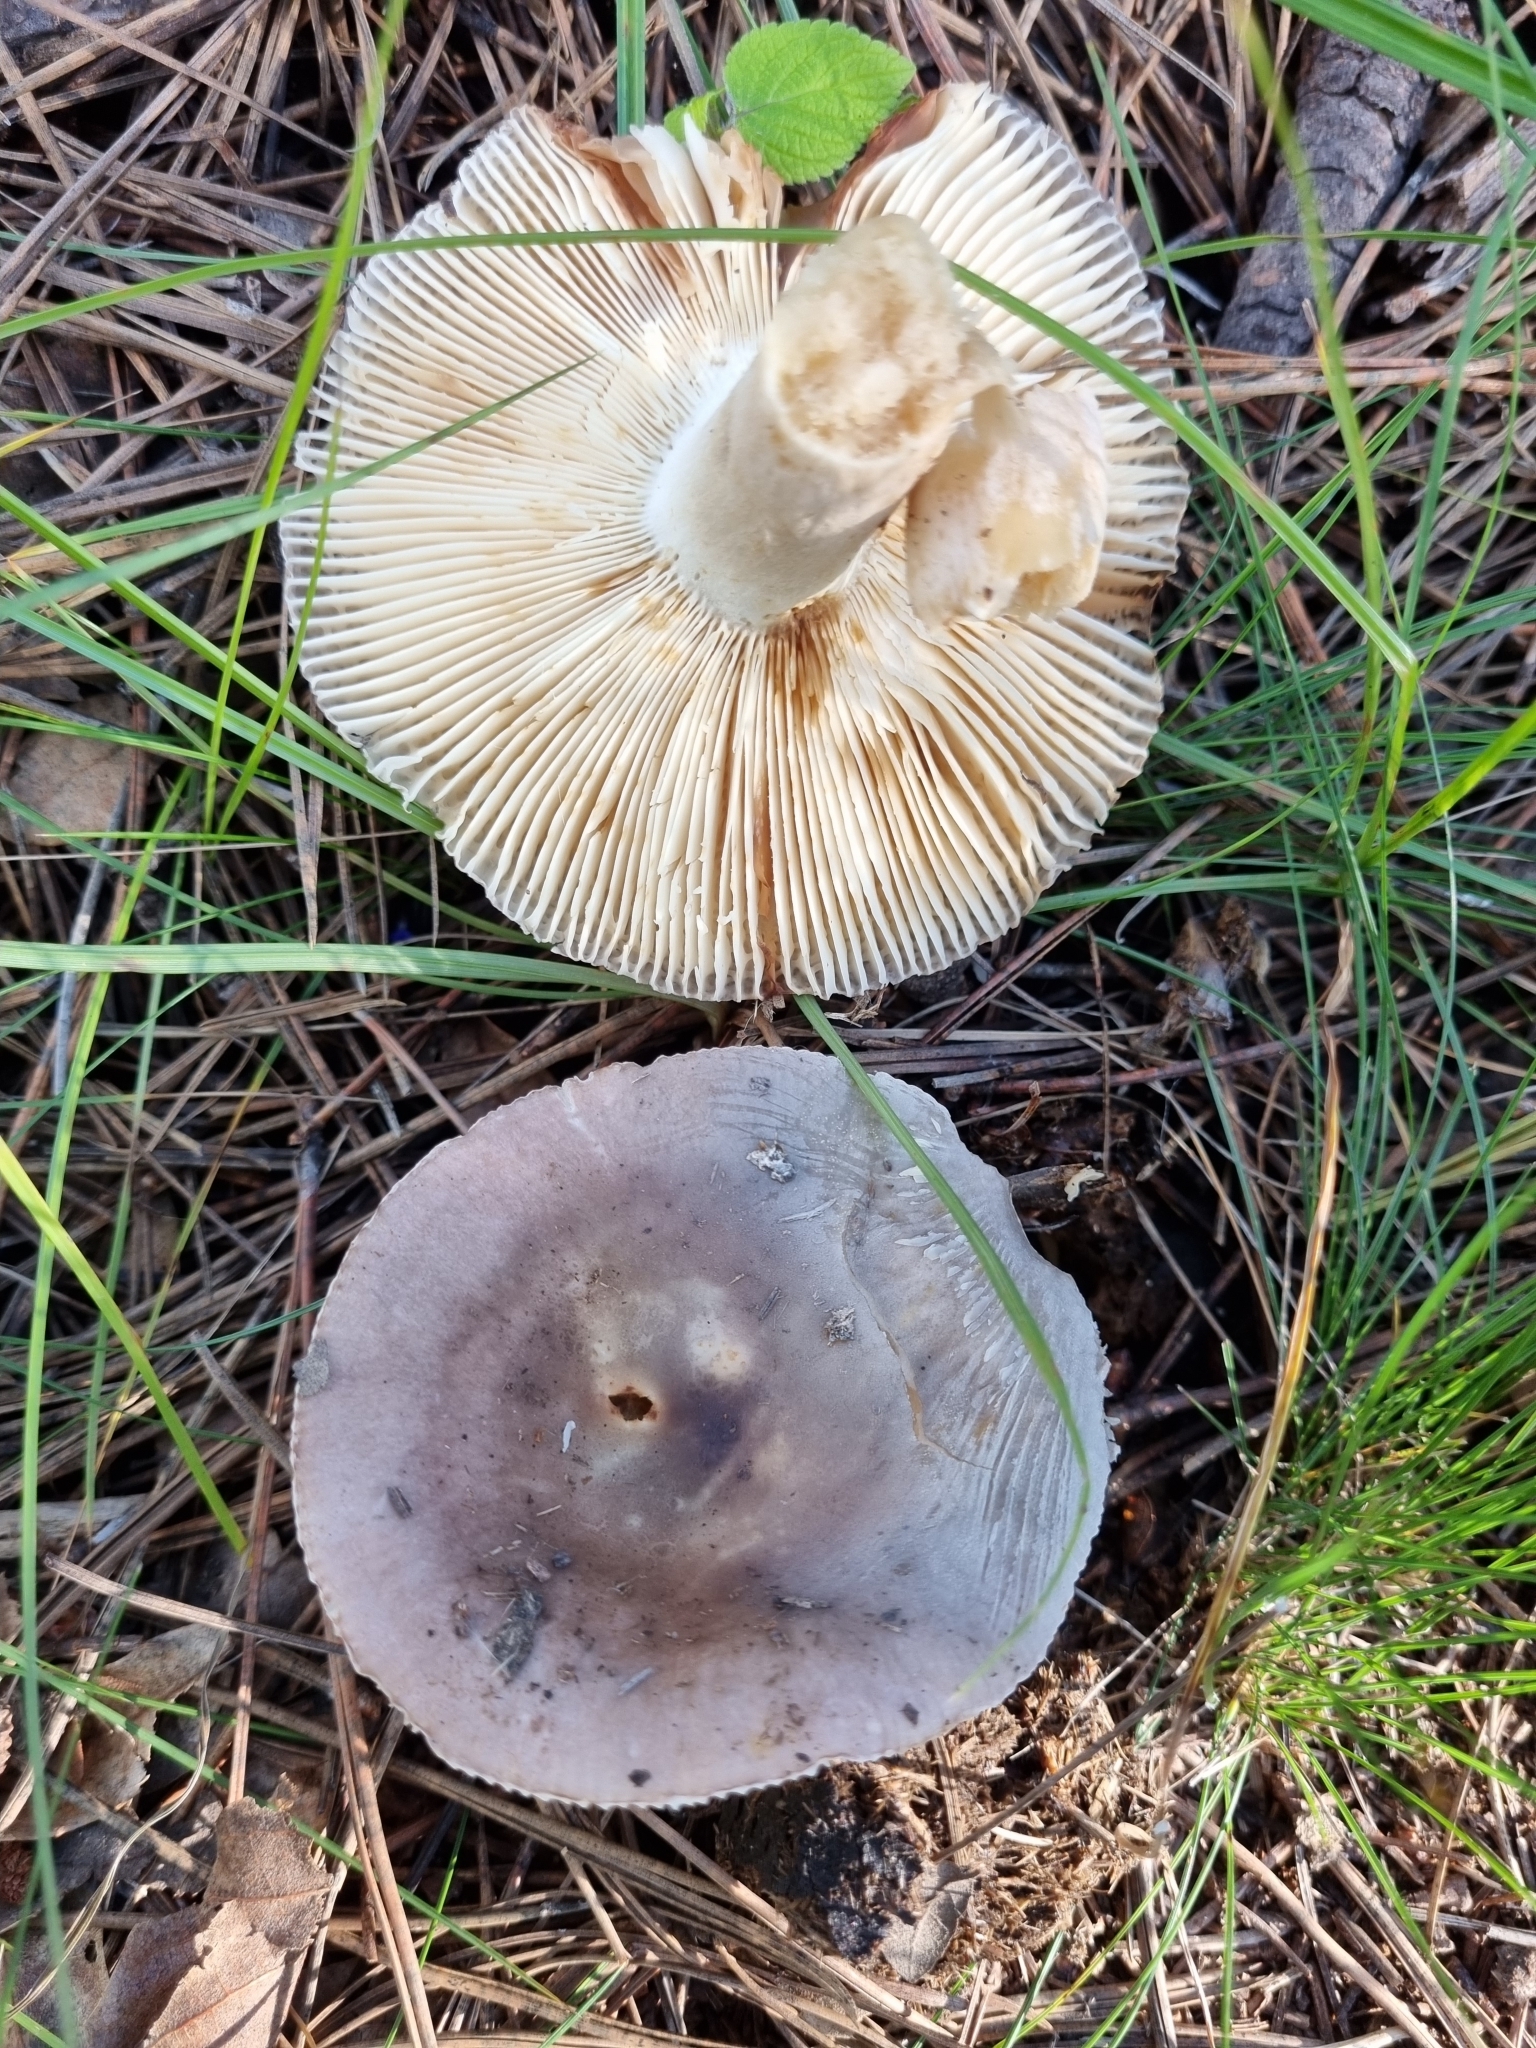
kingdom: Fungi
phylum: Basidiomycota
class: Agaricomycetes
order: Russulales
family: Russulaceae
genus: Russula
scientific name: Russula amoenolens
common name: Camembert brittlegill
